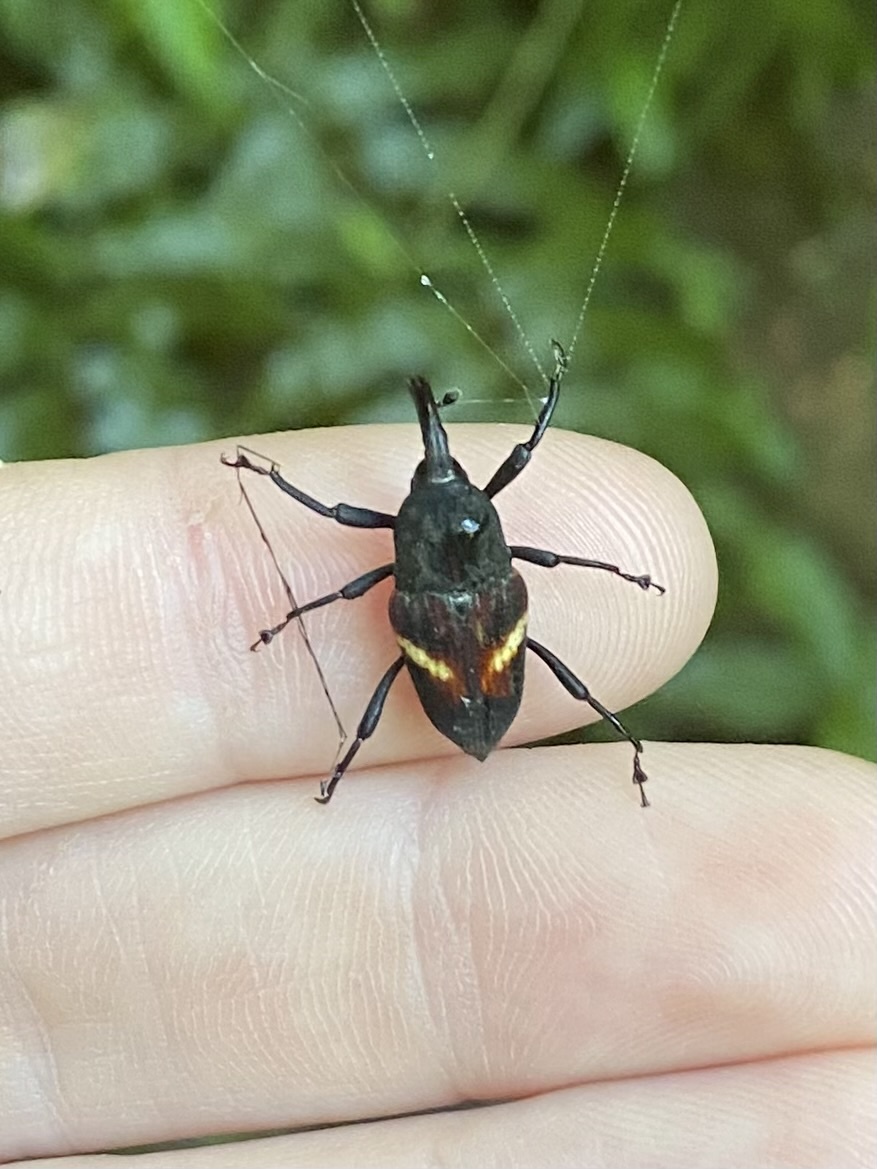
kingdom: Animalia
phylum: Arthropoda
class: Insecta
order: Coleoptera
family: Dryophthoridae
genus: Cactophagus
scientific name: Cactophagus rectistriatus
